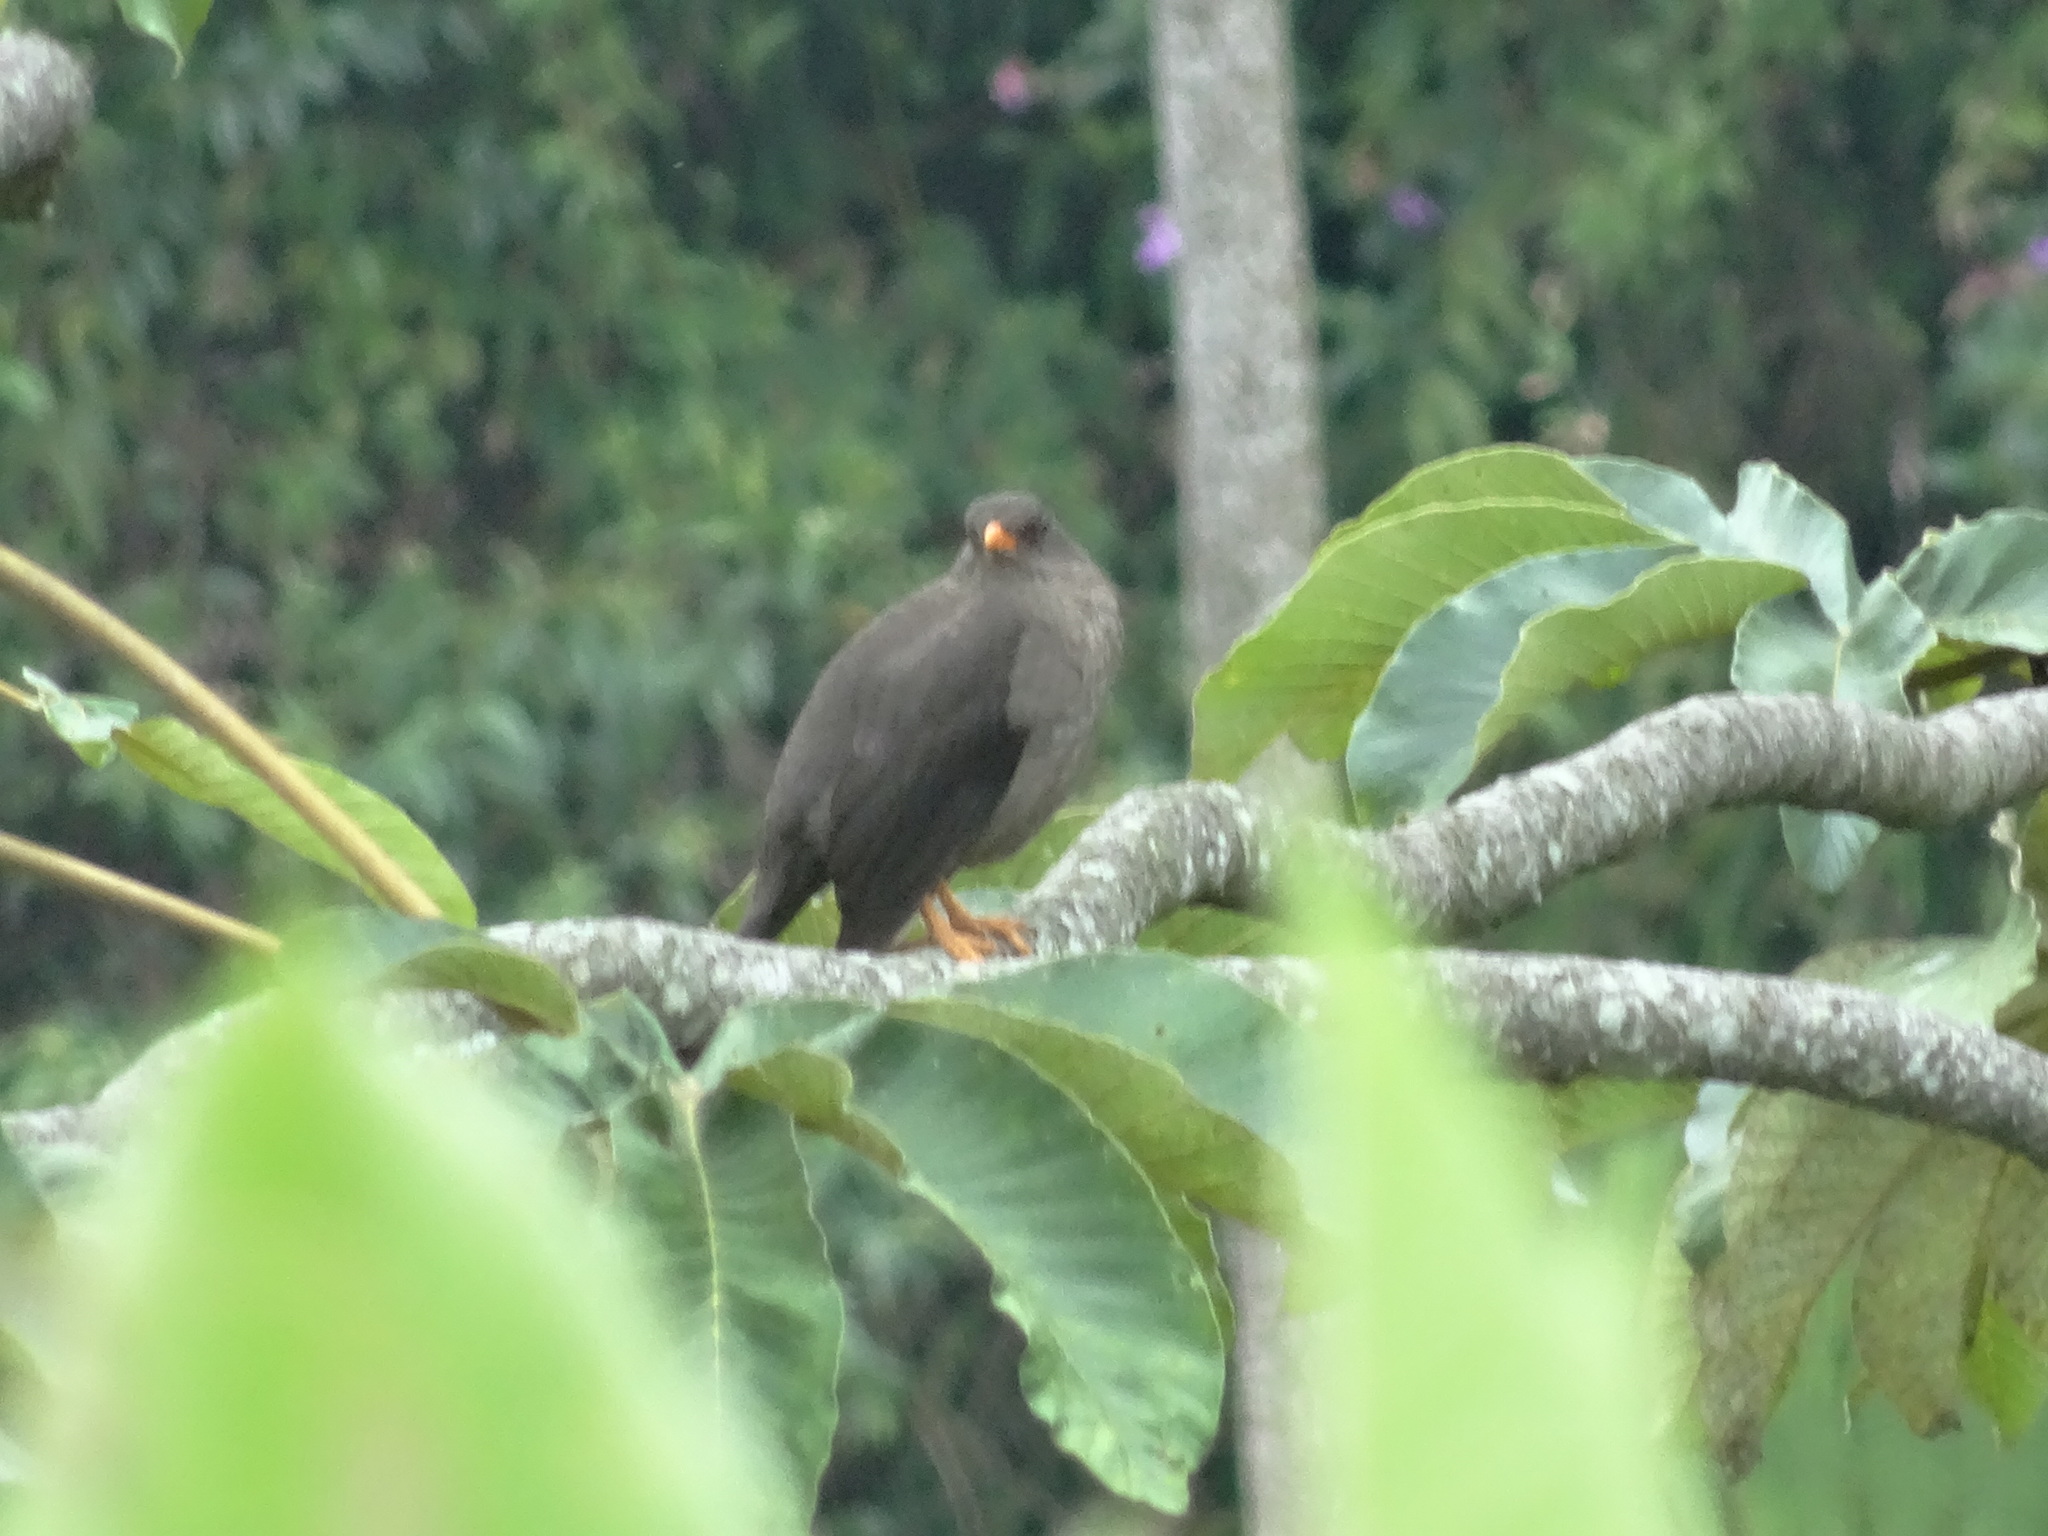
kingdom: Animalia
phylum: Chordata
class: Aves
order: Passeriformes
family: Turdidae
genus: Turdus
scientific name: Turdus fuscater
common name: Great thrush
